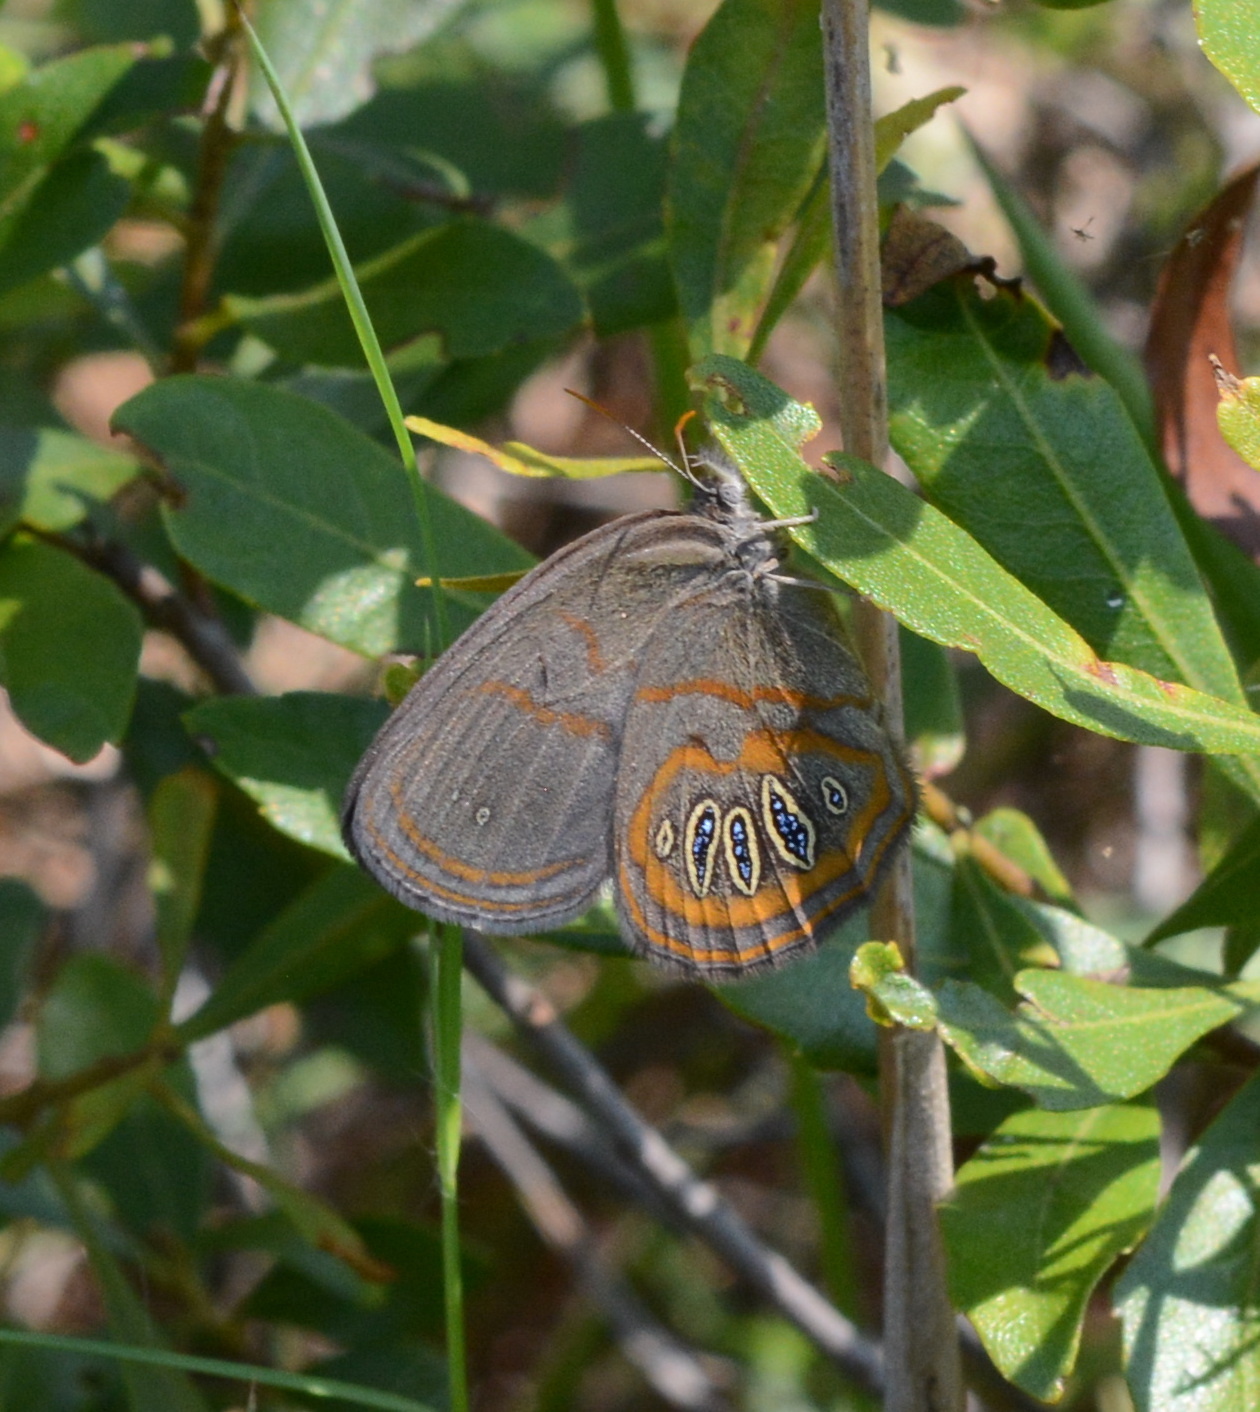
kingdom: Animalia
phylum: Arthropoda
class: Insecta
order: Lepidoptera
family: Nymphalidae
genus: Euptychia
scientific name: Euptychia phocion
